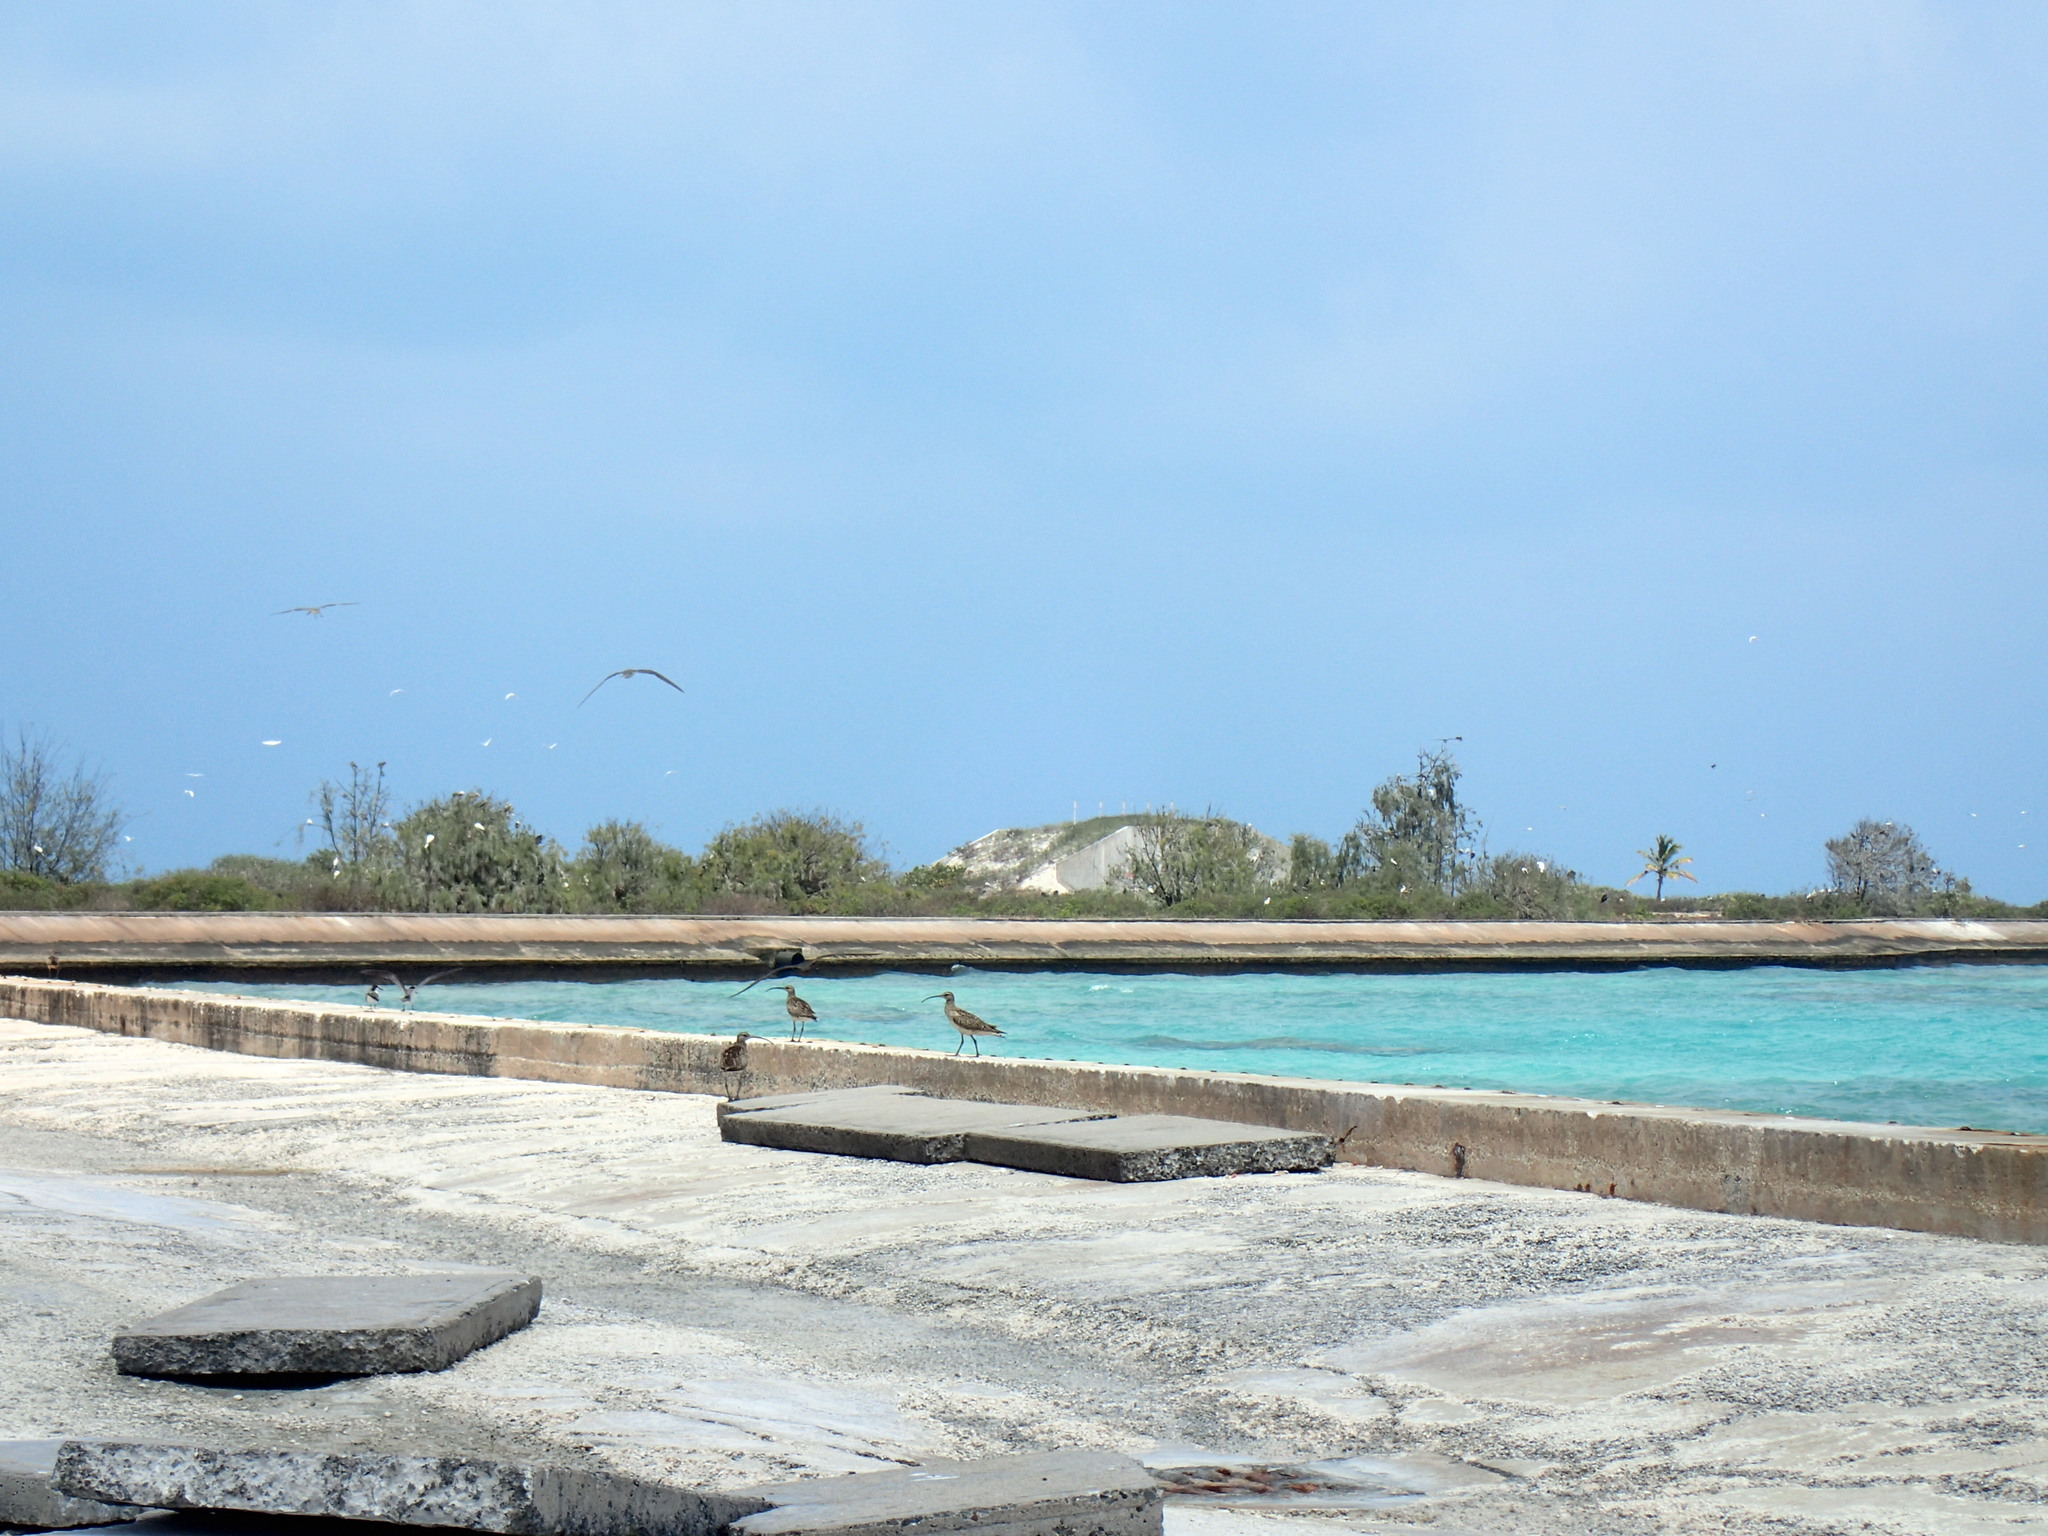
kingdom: Animalia
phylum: Chordata
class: Aves
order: Charadriiformes
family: Scolopacidae
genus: Numenius
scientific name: Numenius tahitiensis
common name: Bristle-thighed curlew
